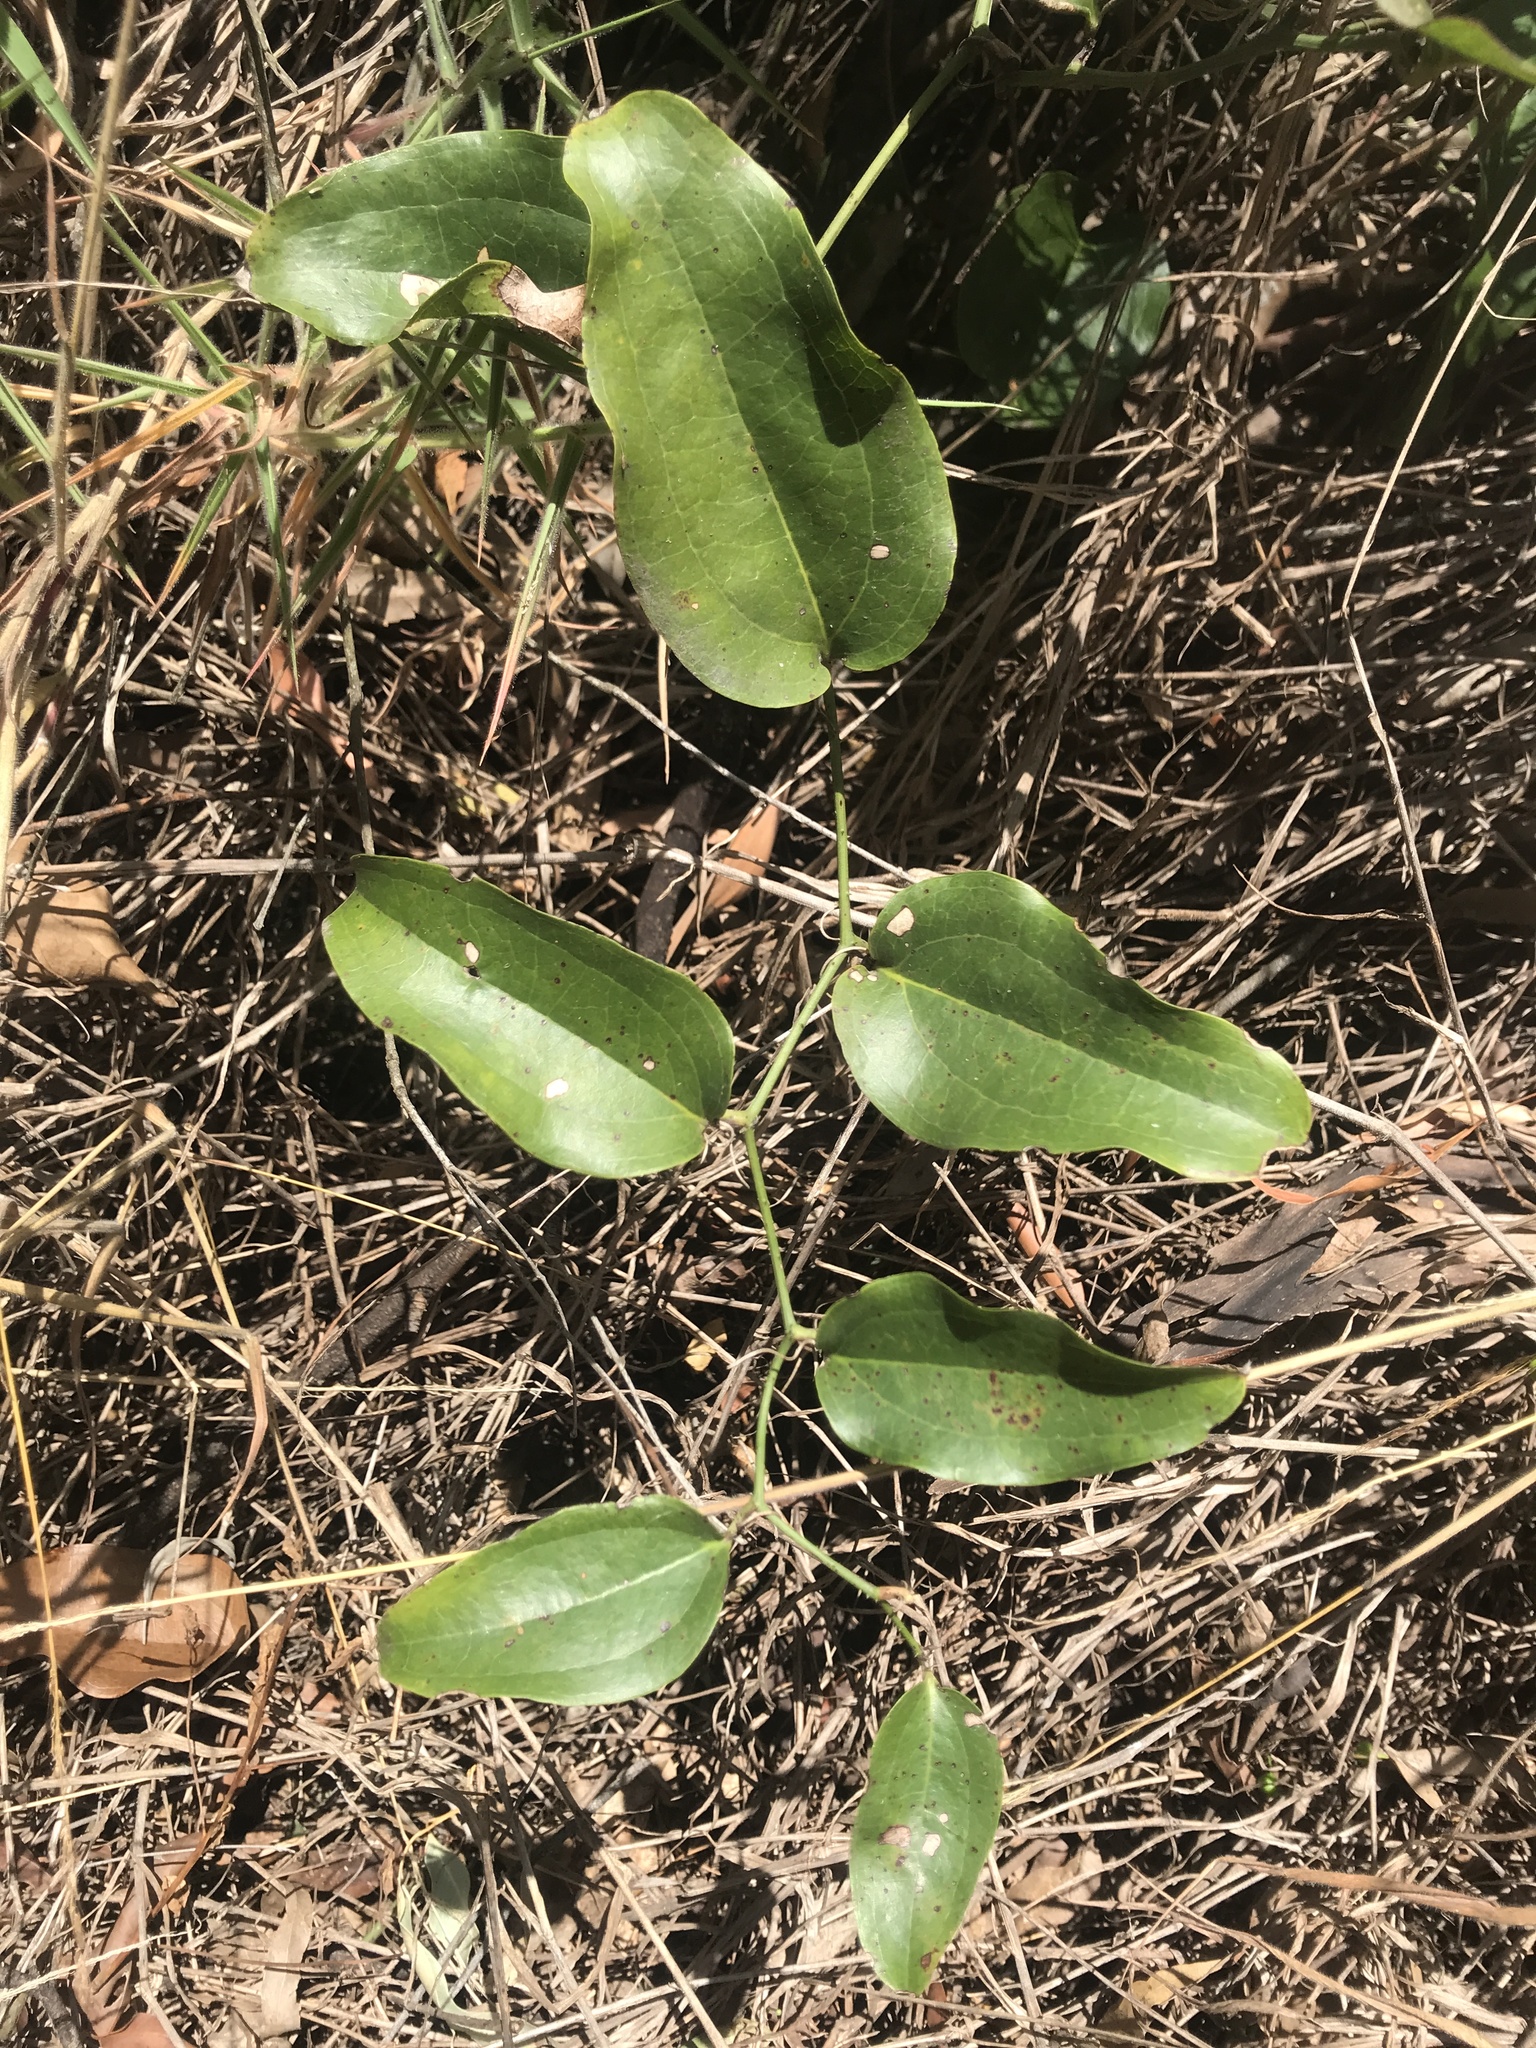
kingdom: Plantae
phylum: Tracheophyta
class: Liliopsida
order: Liliales
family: Smilacaceae
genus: Smilax
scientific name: Smilax australis
